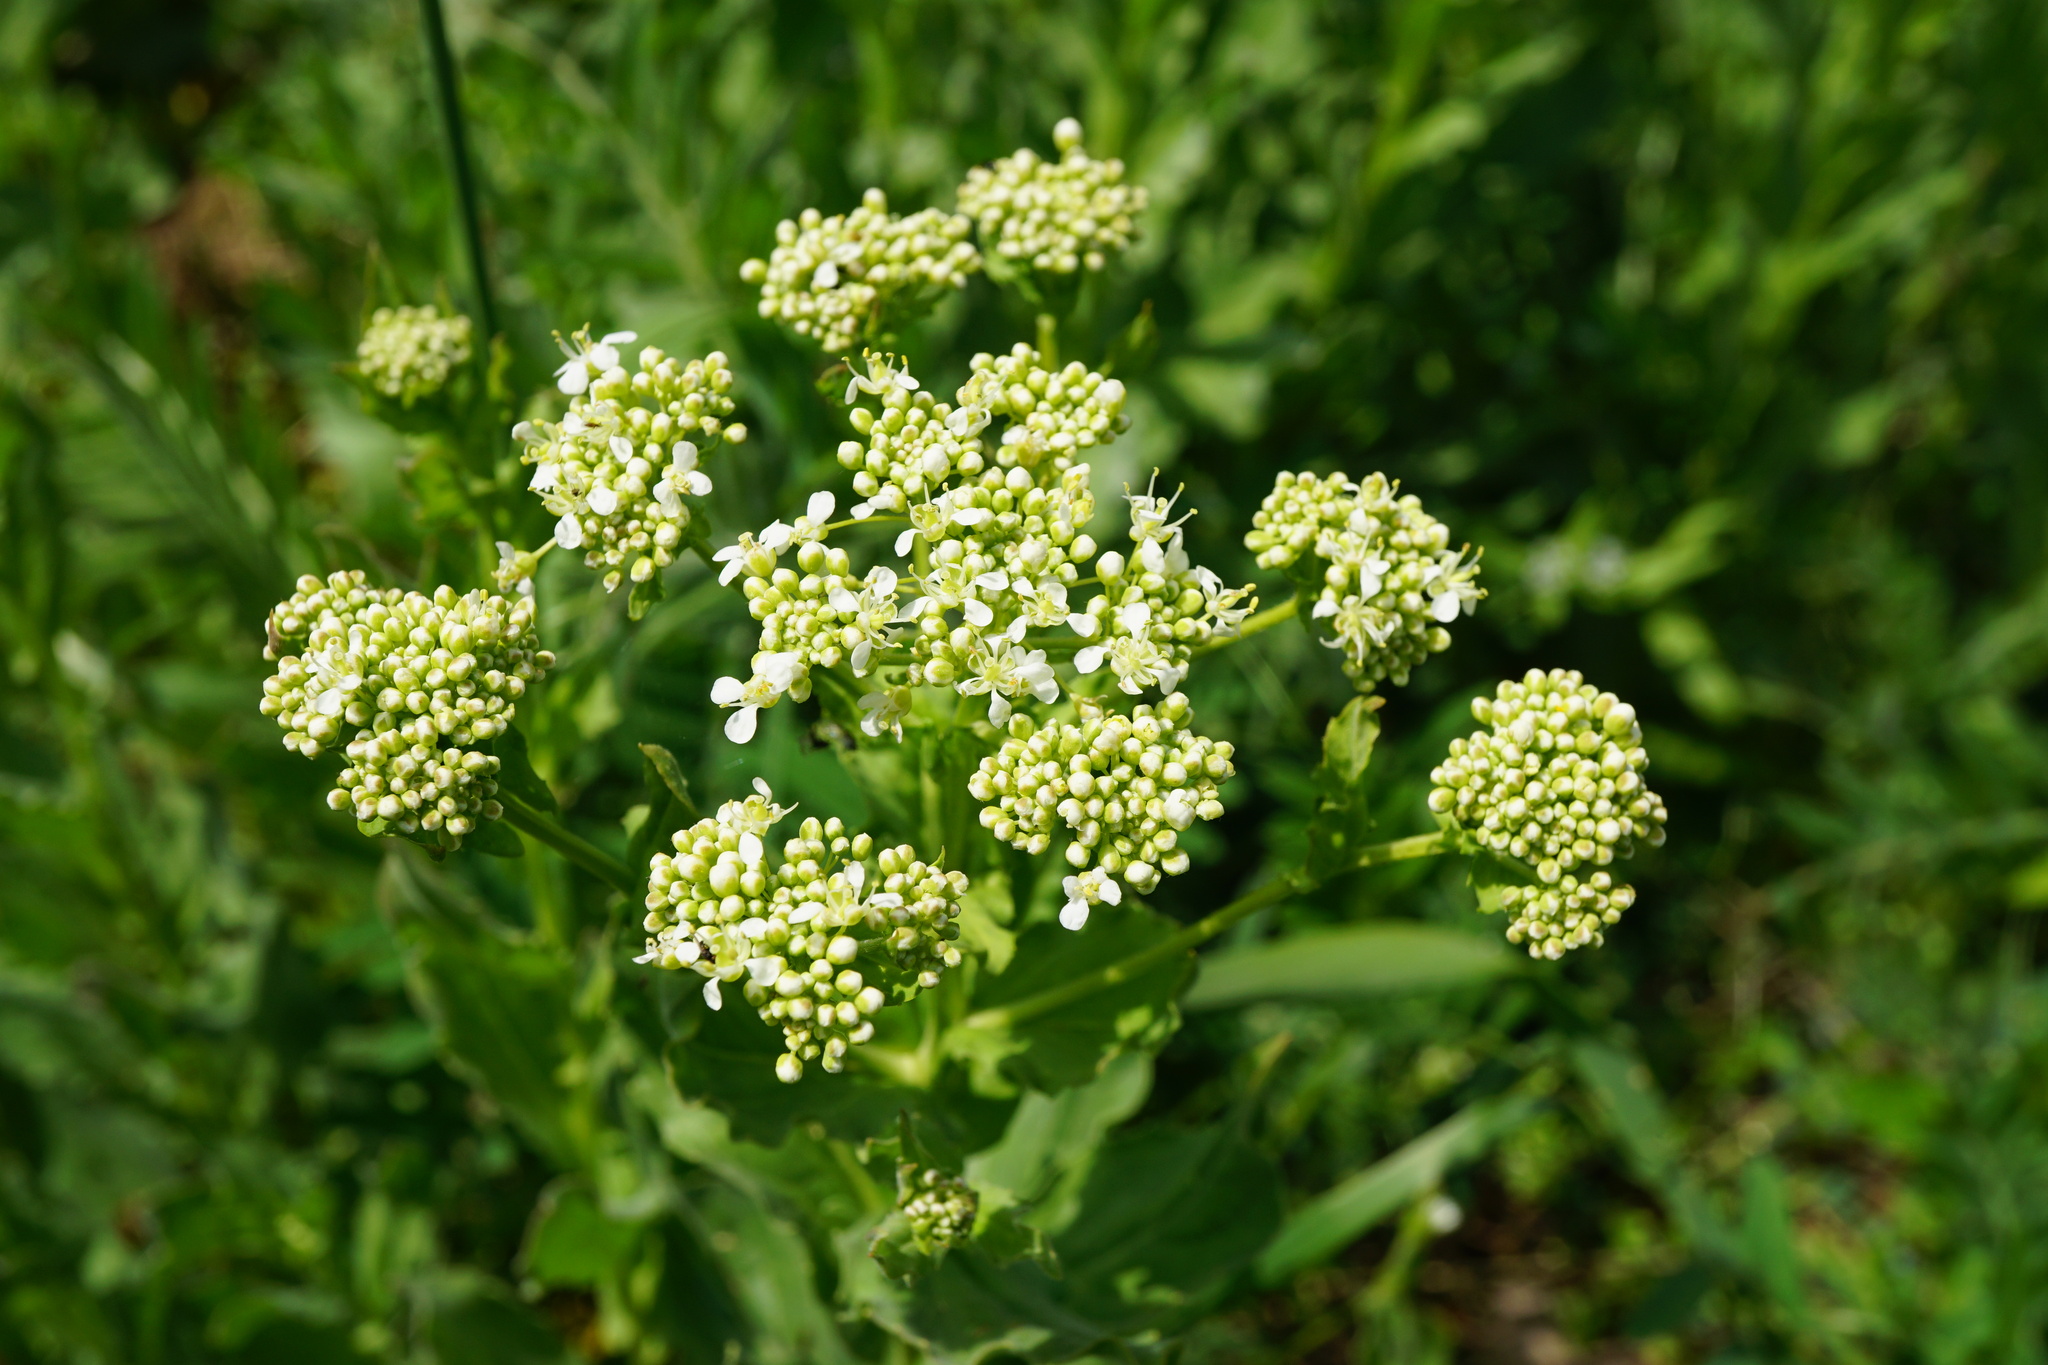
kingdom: Plantae
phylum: Tracheophyta
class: Magnoliopsida
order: Brassicales
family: Brassicaceae
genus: Lepidium
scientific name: Lepidium draba
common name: Hoary cress
